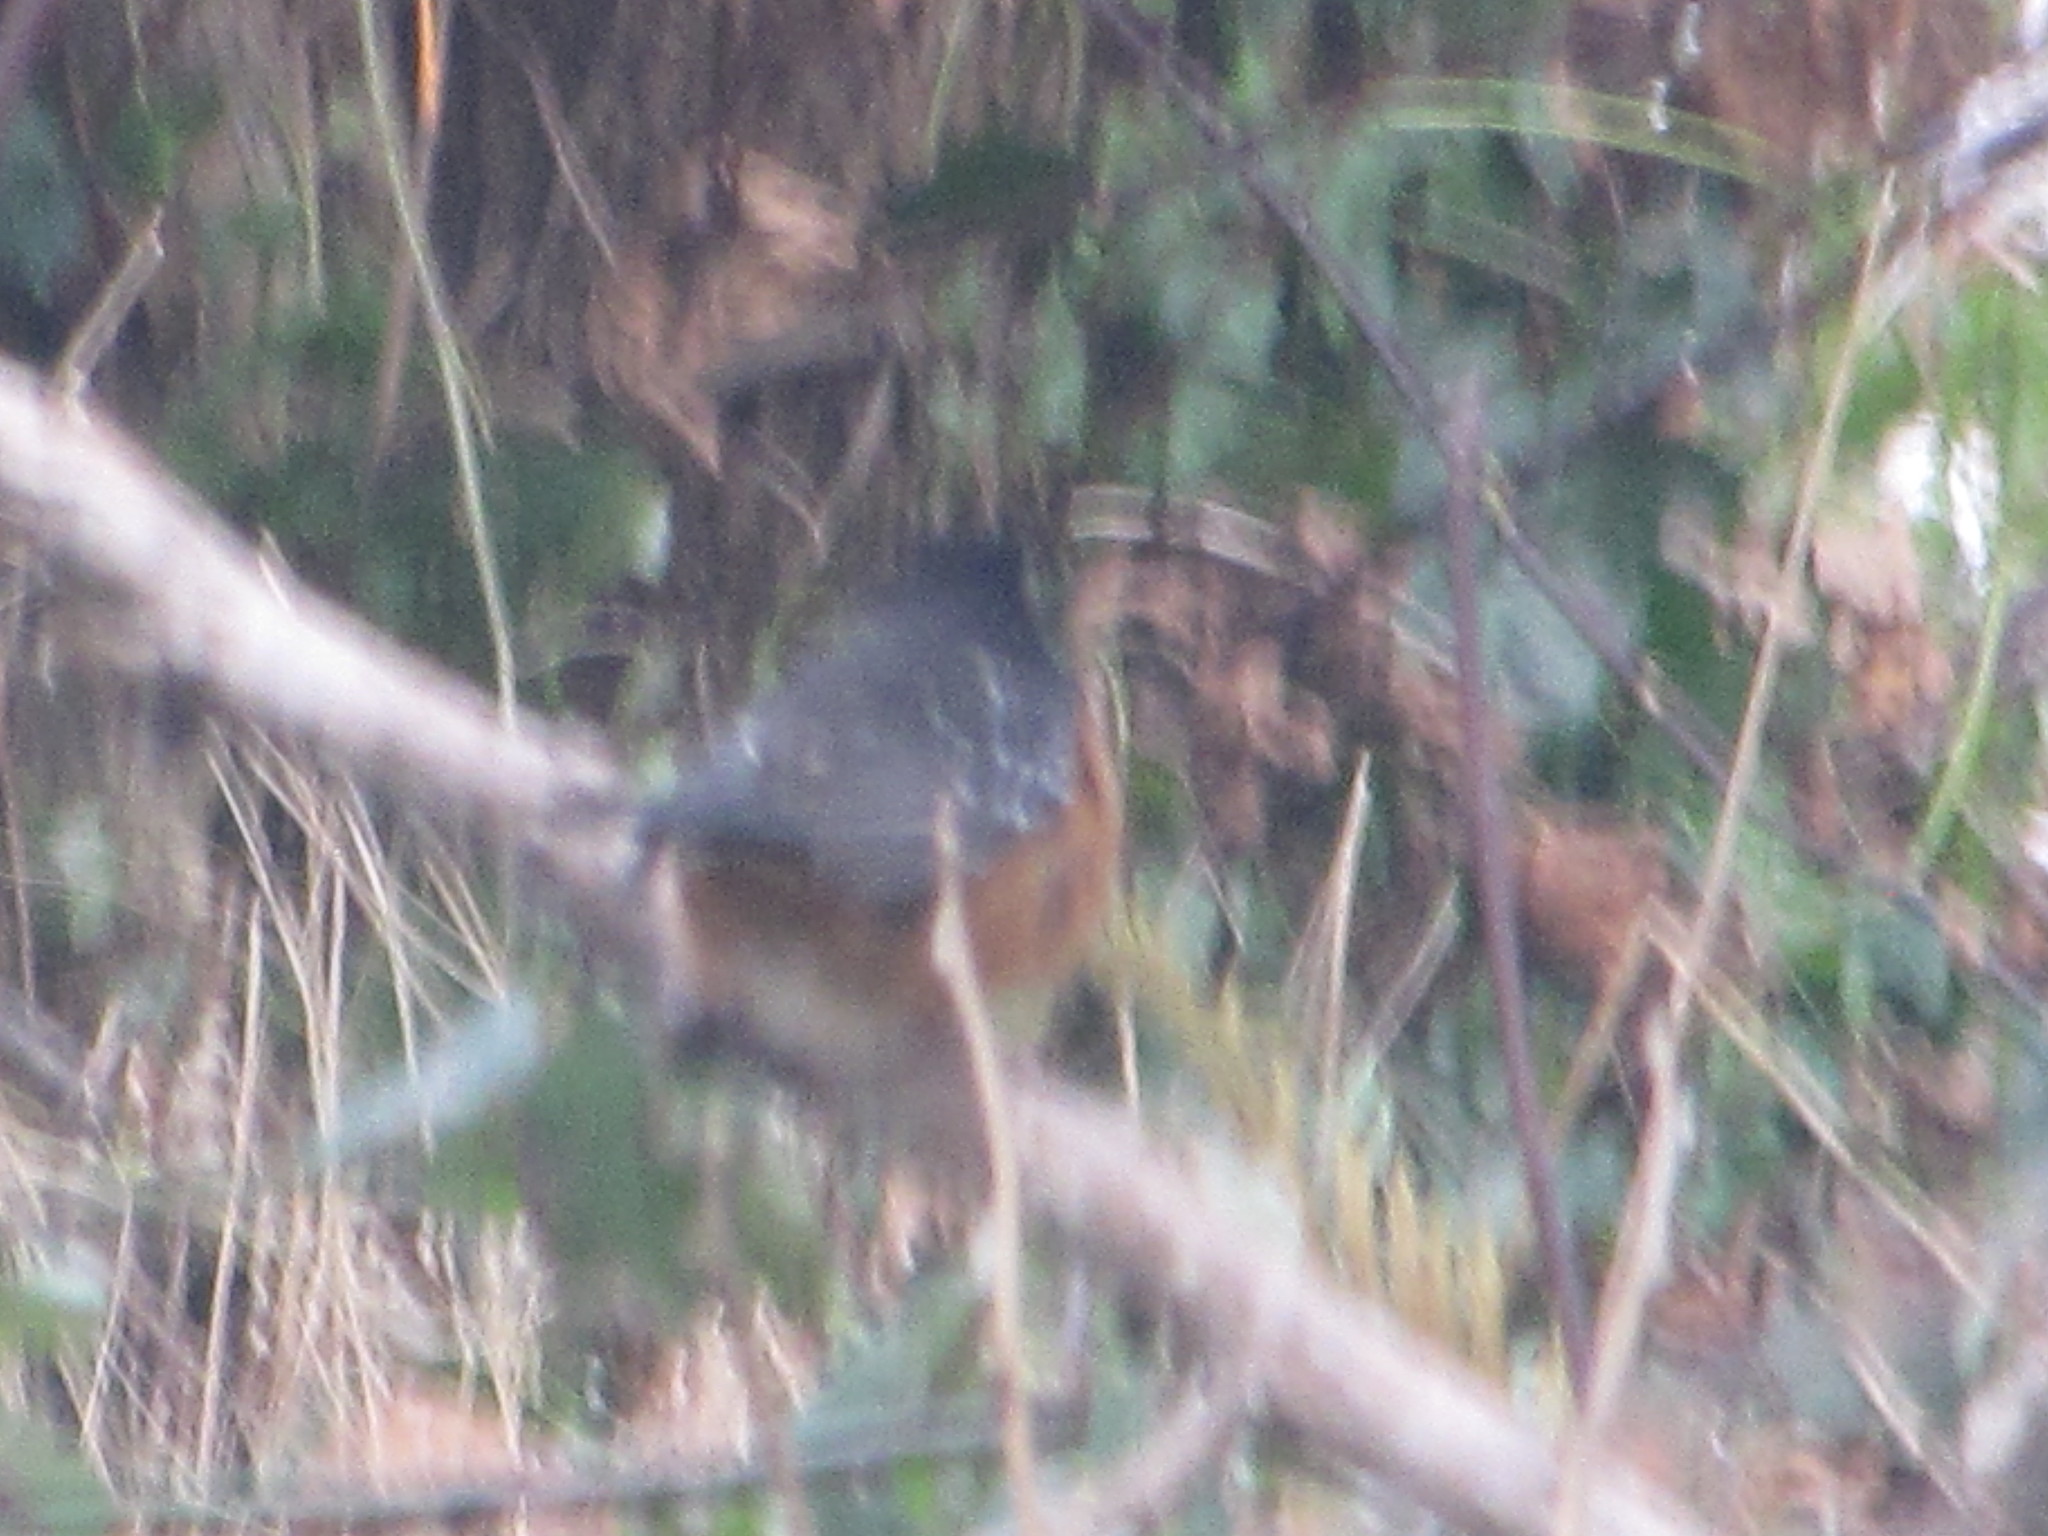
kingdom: Animalia
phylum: Chordata
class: Aves
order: Passeriformes
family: Passerellidae
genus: Pipilo
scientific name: Pipilo maculatus
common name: Spotted towhee
